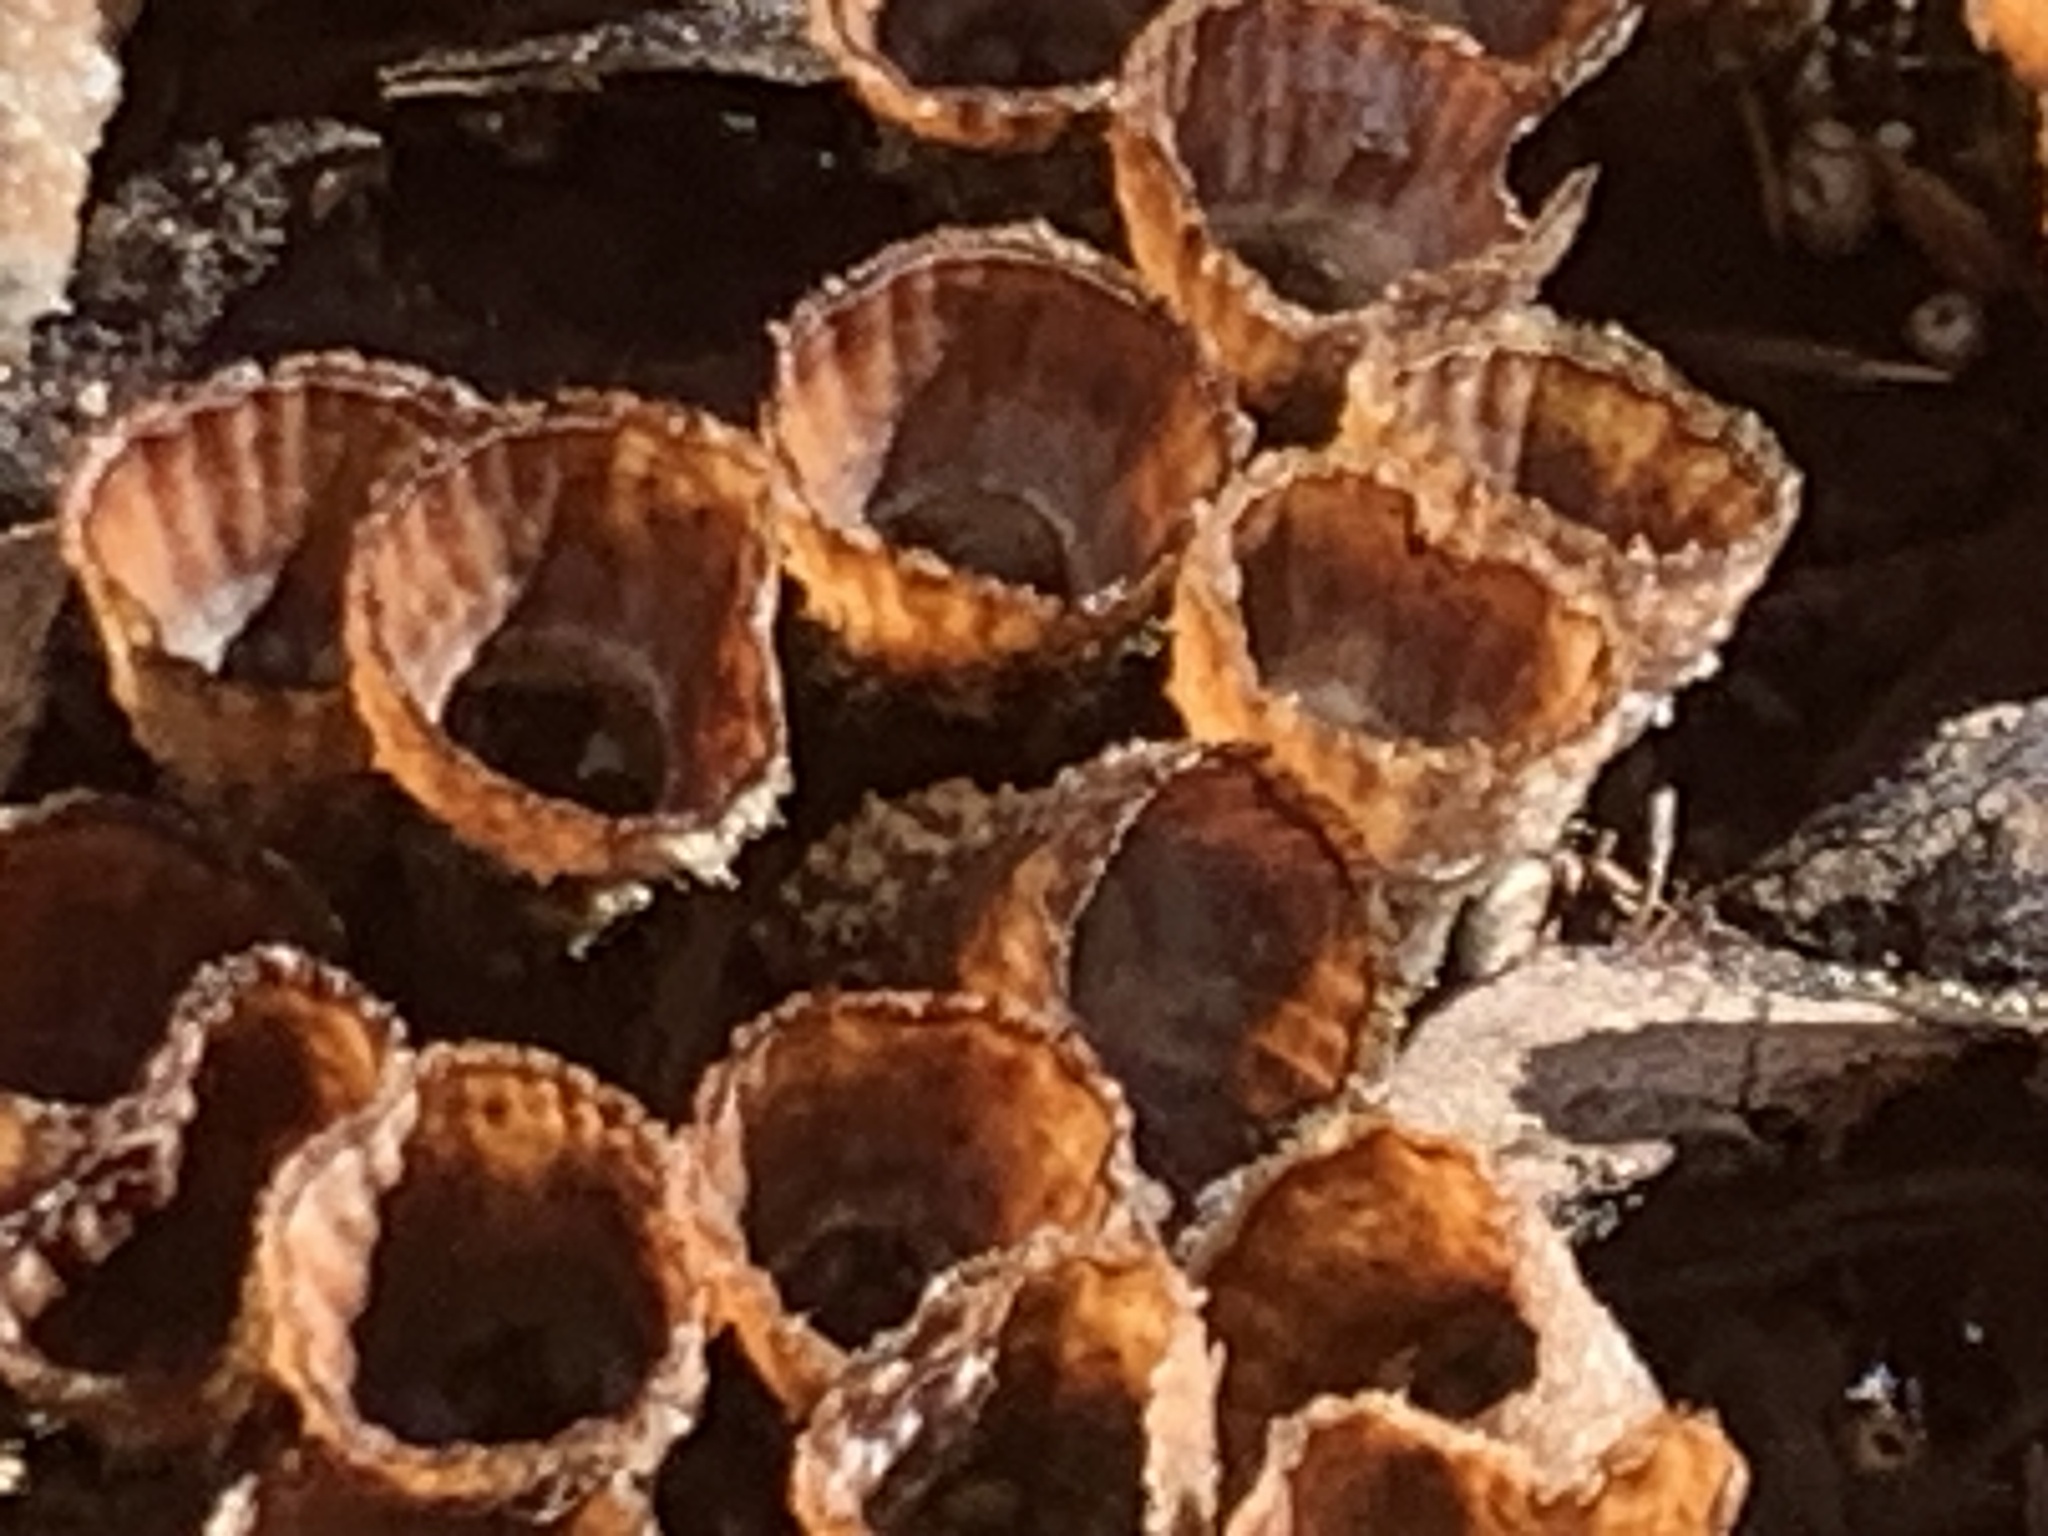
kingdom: Fungi
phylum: Basidiomycota
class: Agaricomycetes
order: Agaricales
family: Agaricaceae
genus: Cyathus
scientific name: Cyathus striatus
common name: Fluted bird's nest
